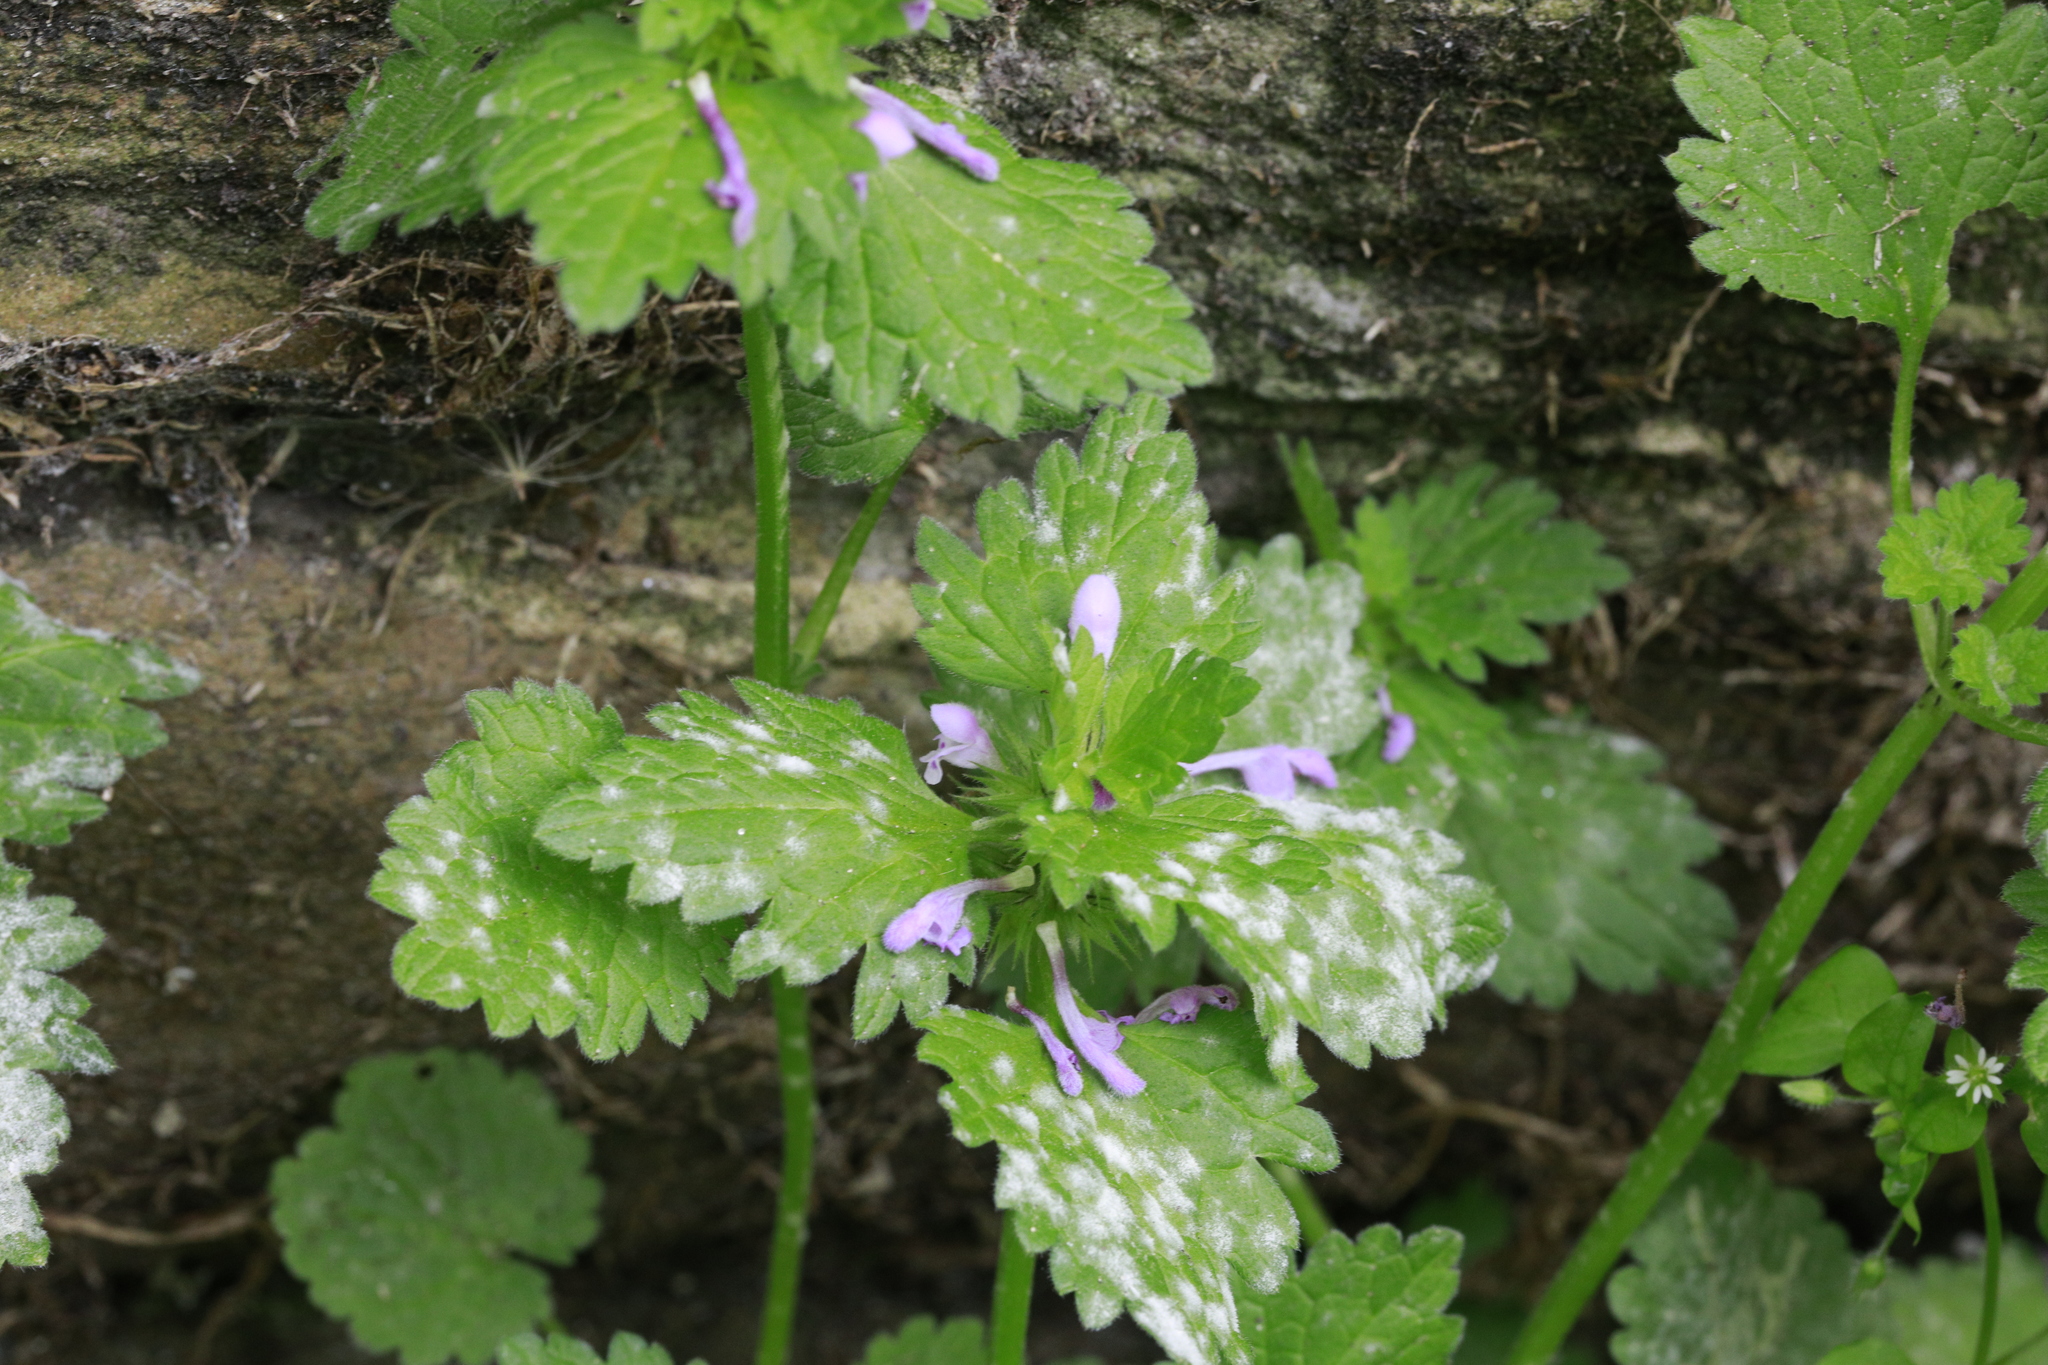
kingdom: Fungi
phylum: Ascomycota
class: Leotiomycetes
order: Helotiales
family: Erysiphaceae
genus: Neoerysiphe
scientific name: Neoerysiphe galeopsidis
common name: Mint mildew
